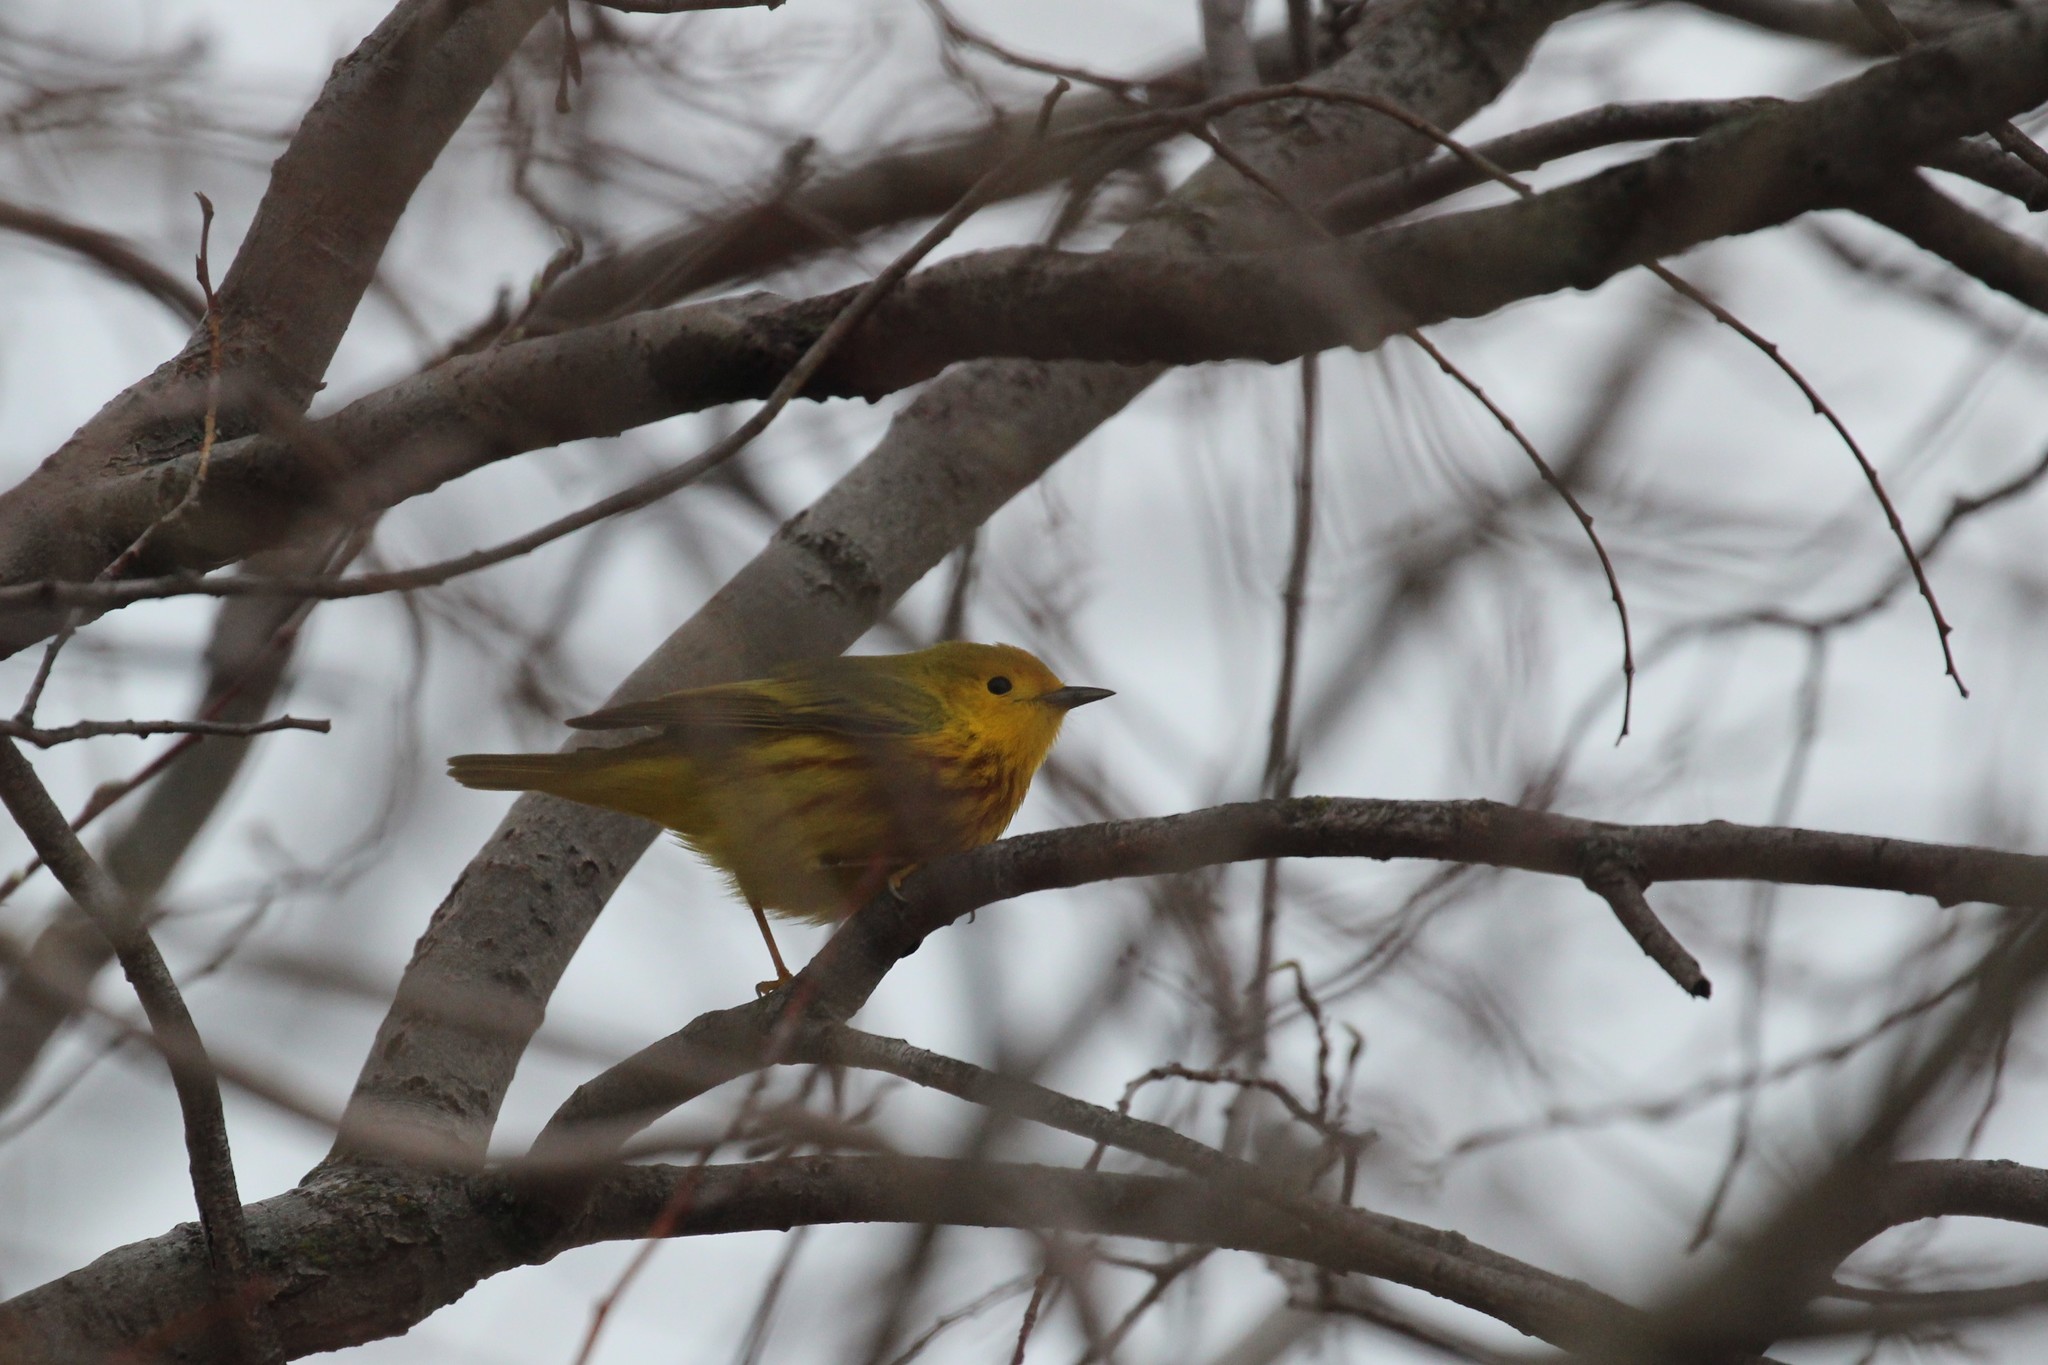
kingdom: Animalia
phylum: Chordata
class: Aves
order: Passeriformes
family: Parulidae
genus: Setophaga
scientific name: Setophaga petechia
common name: Yellow warbler
